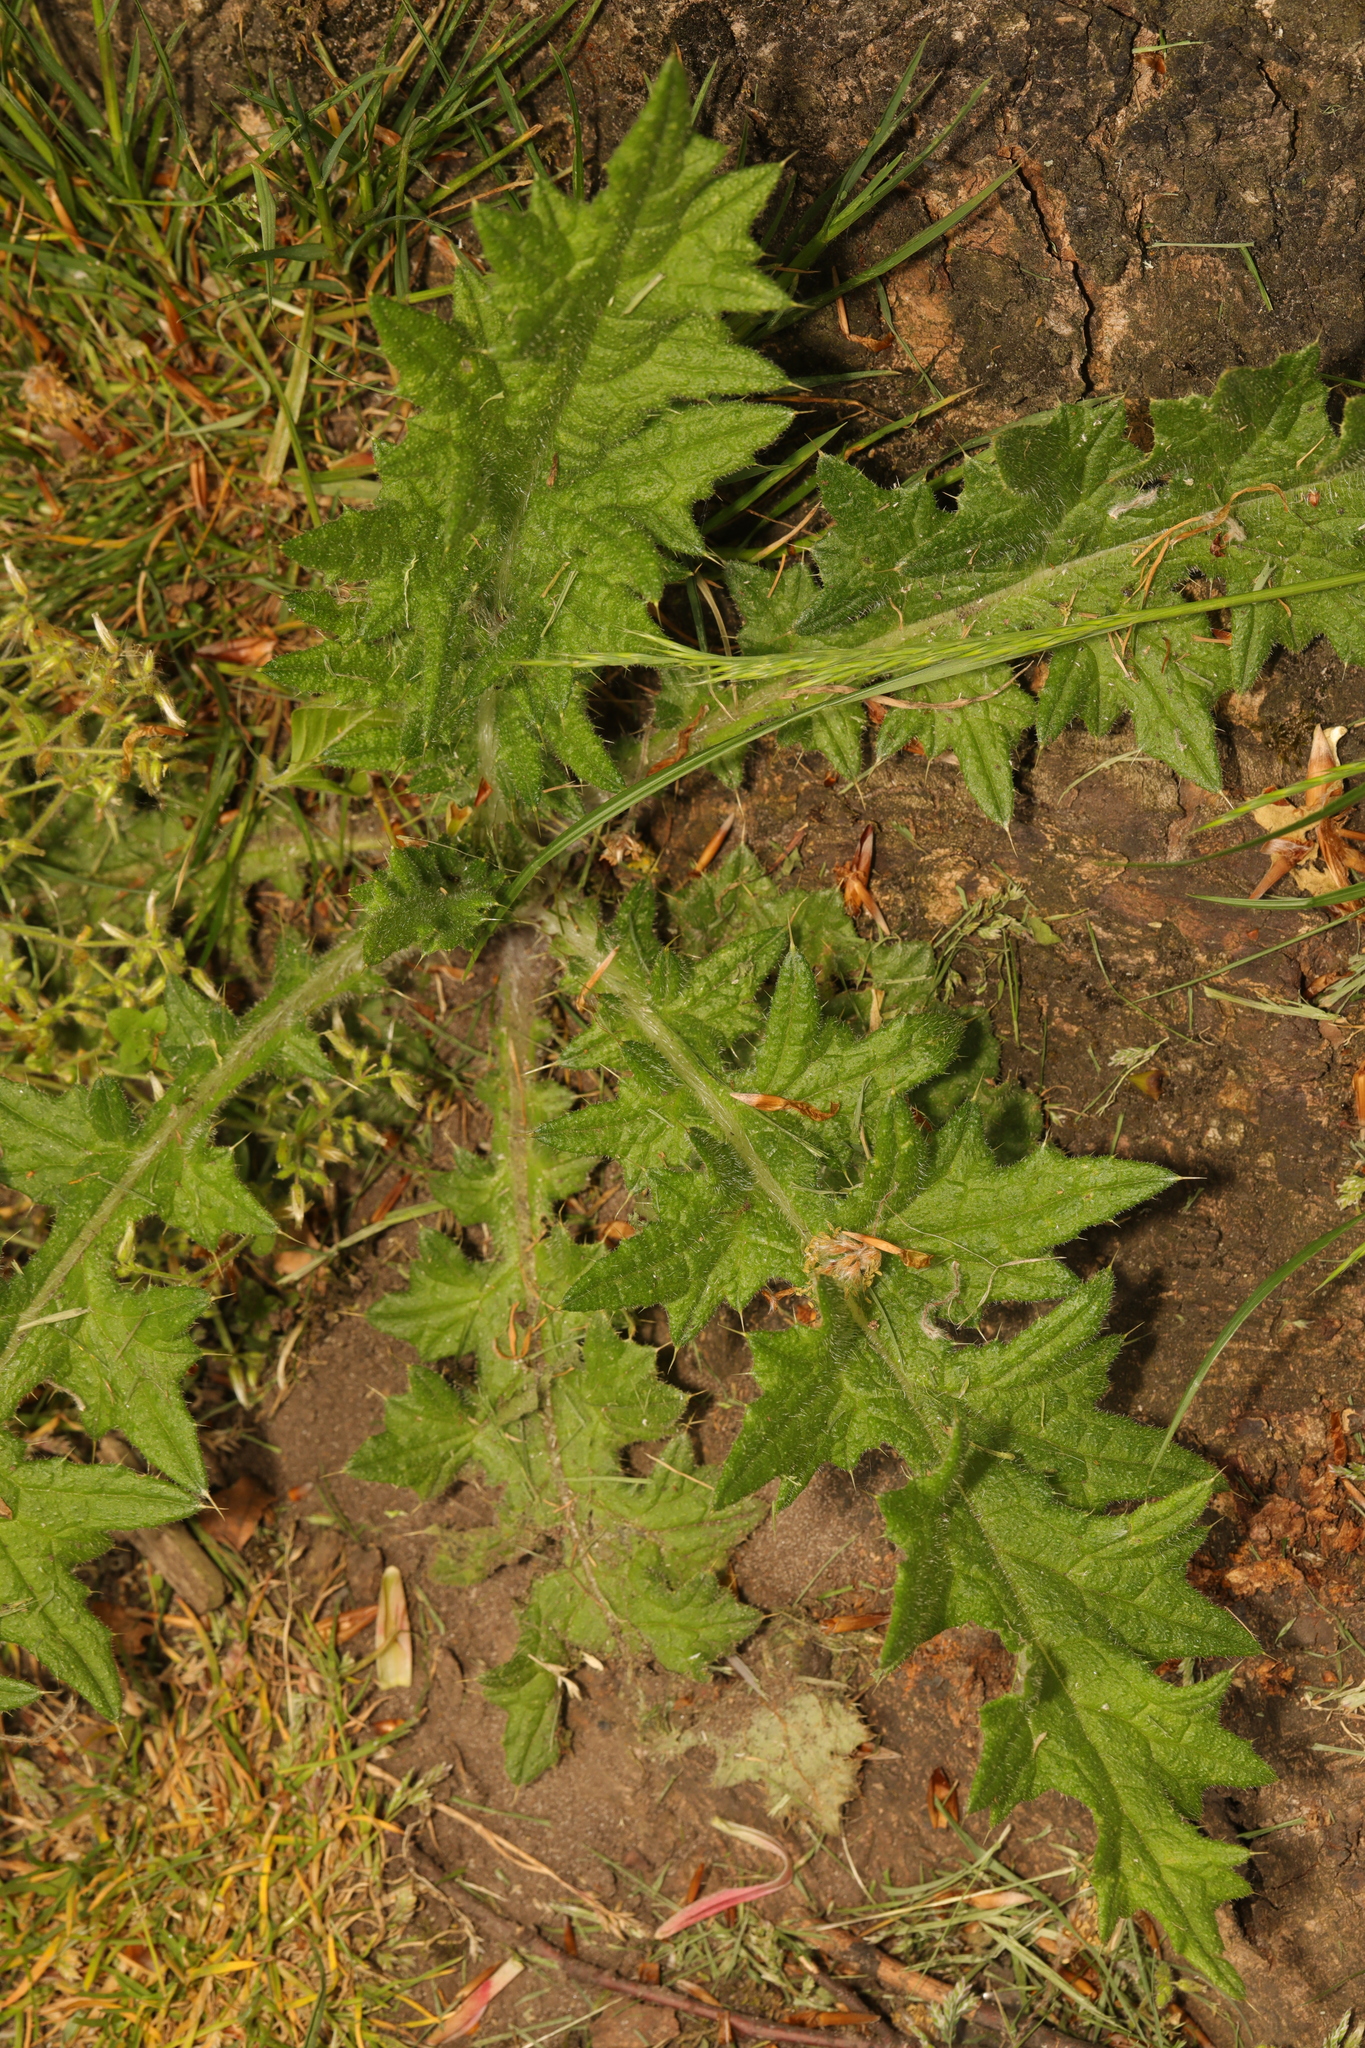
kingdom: Plantae
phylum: Tracheophyta
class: Magnoliopsida
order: Asterales
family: Asteraceae
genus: Cirsium
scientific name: Cirsium vulgare
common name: Bull thistle
